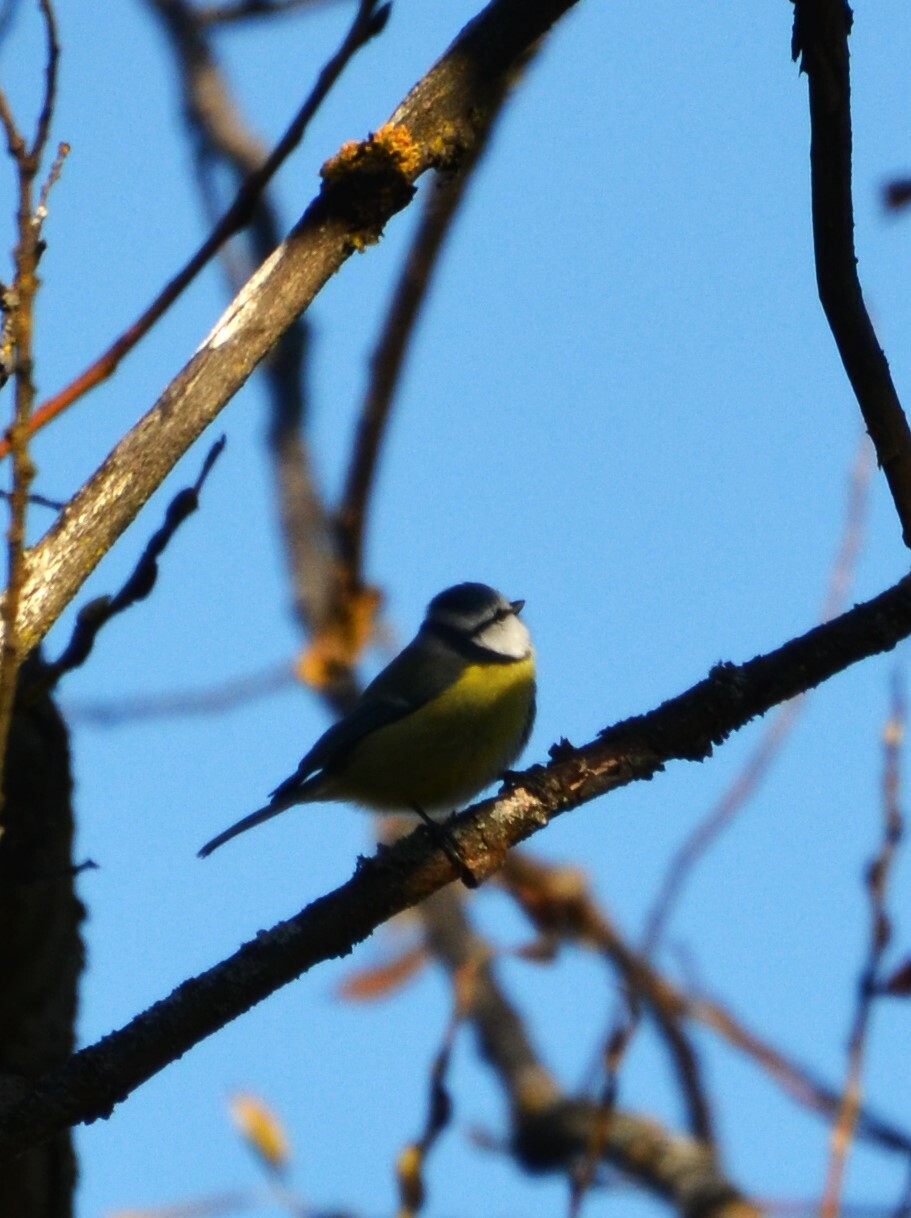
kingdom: Animalia
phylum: Chordata
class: Aves
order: Passeriformes
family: Paridae
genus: Cyanistes
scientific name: Cyanistes caeruleus
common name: Eurasian blue tit
